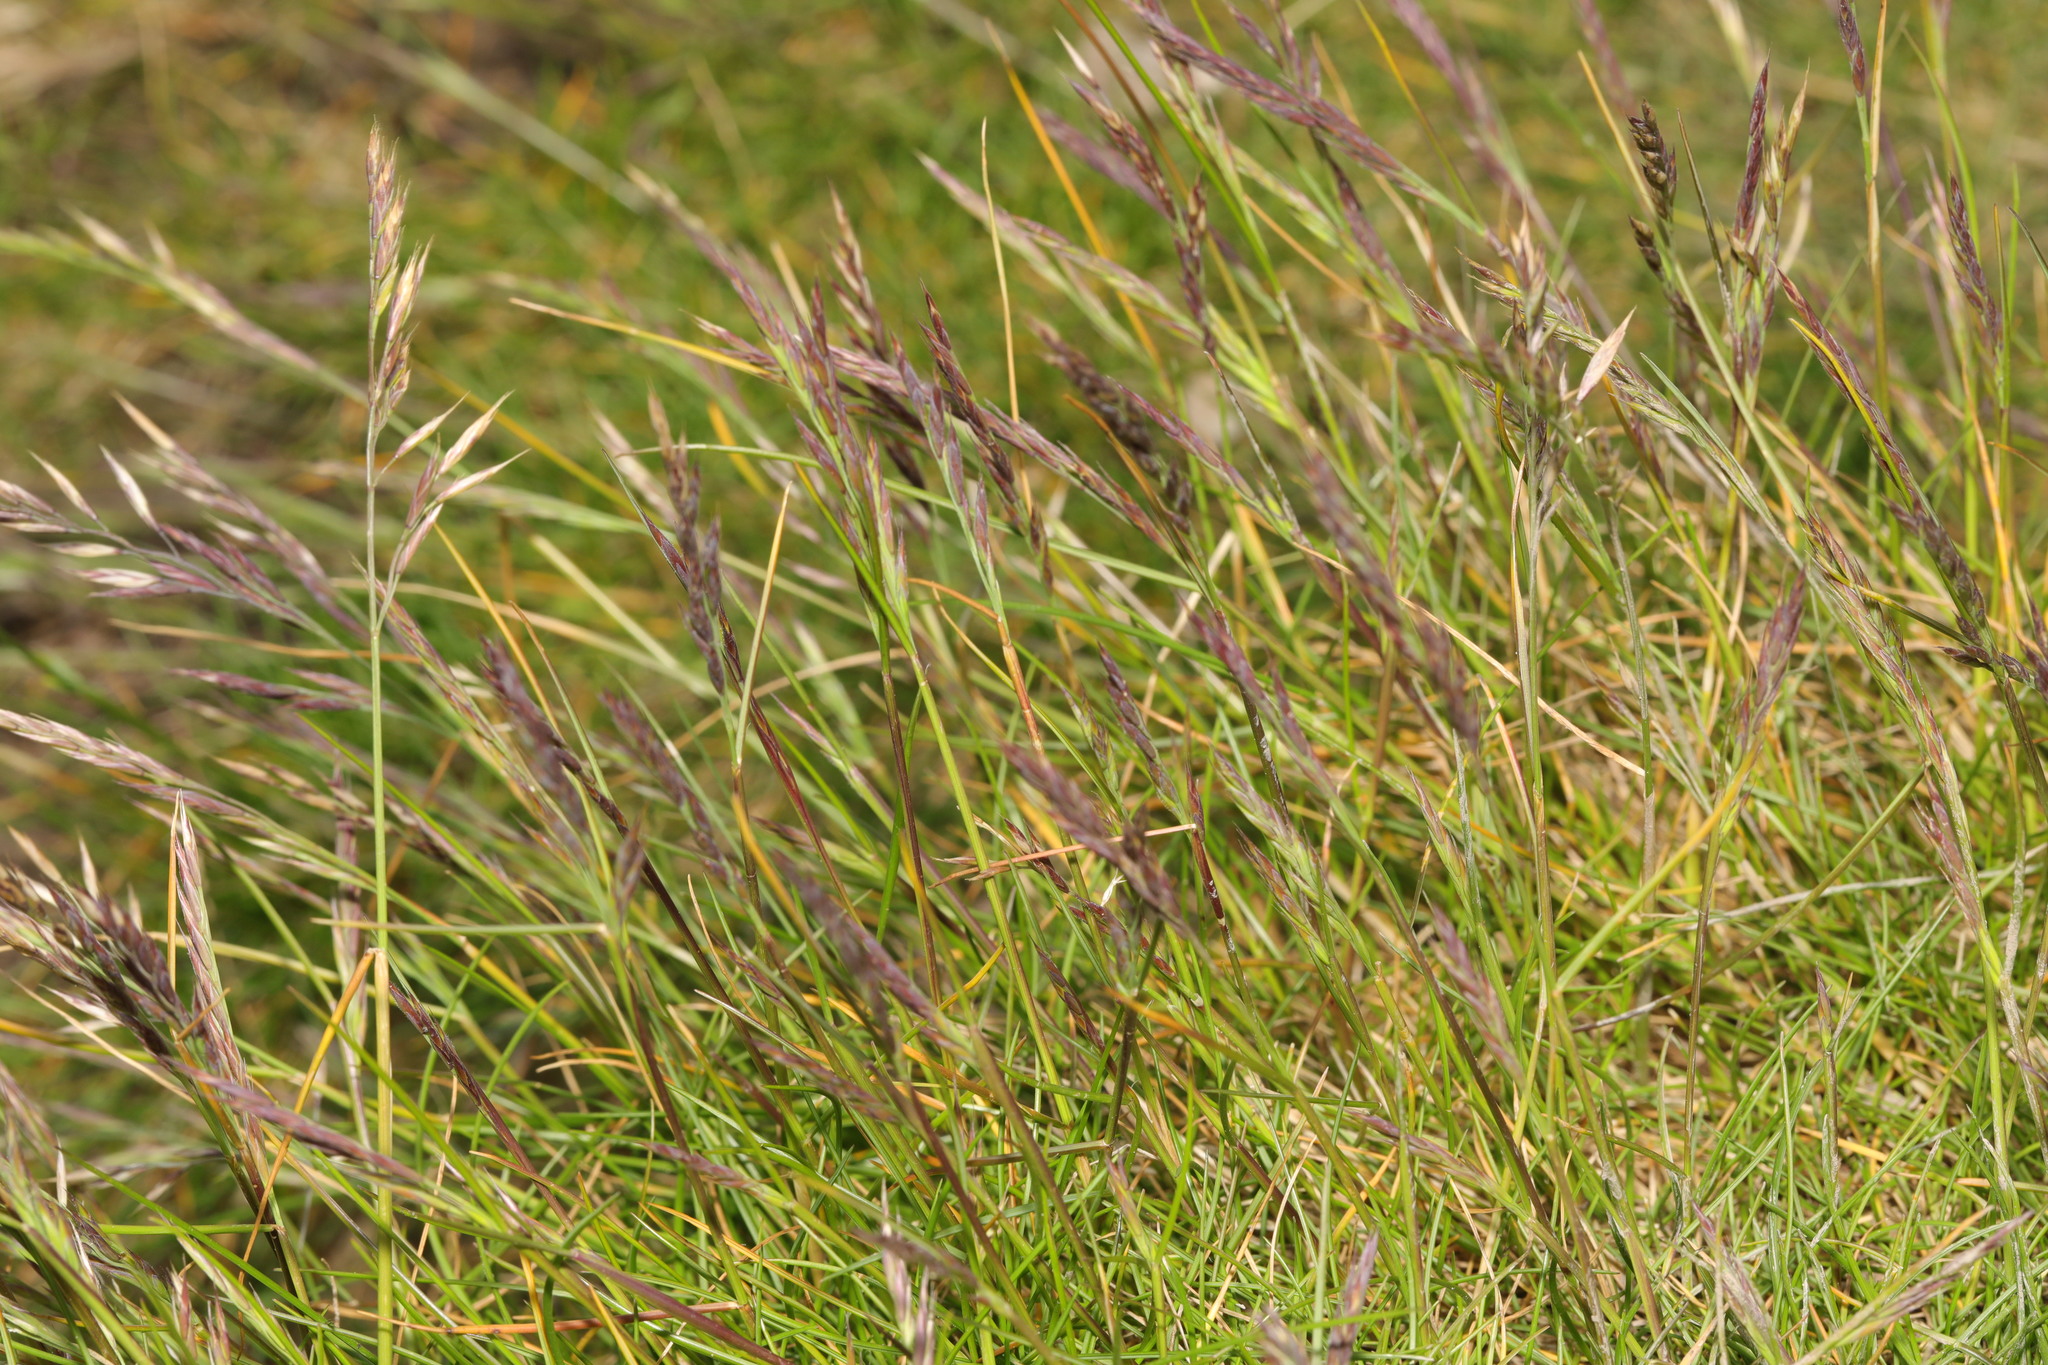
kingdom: Plantae
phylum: Tracheophyta
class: Liliopsida
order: Poales
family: Poaceae
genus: Festuca
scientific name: Festuca rubra
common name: Red fescue
